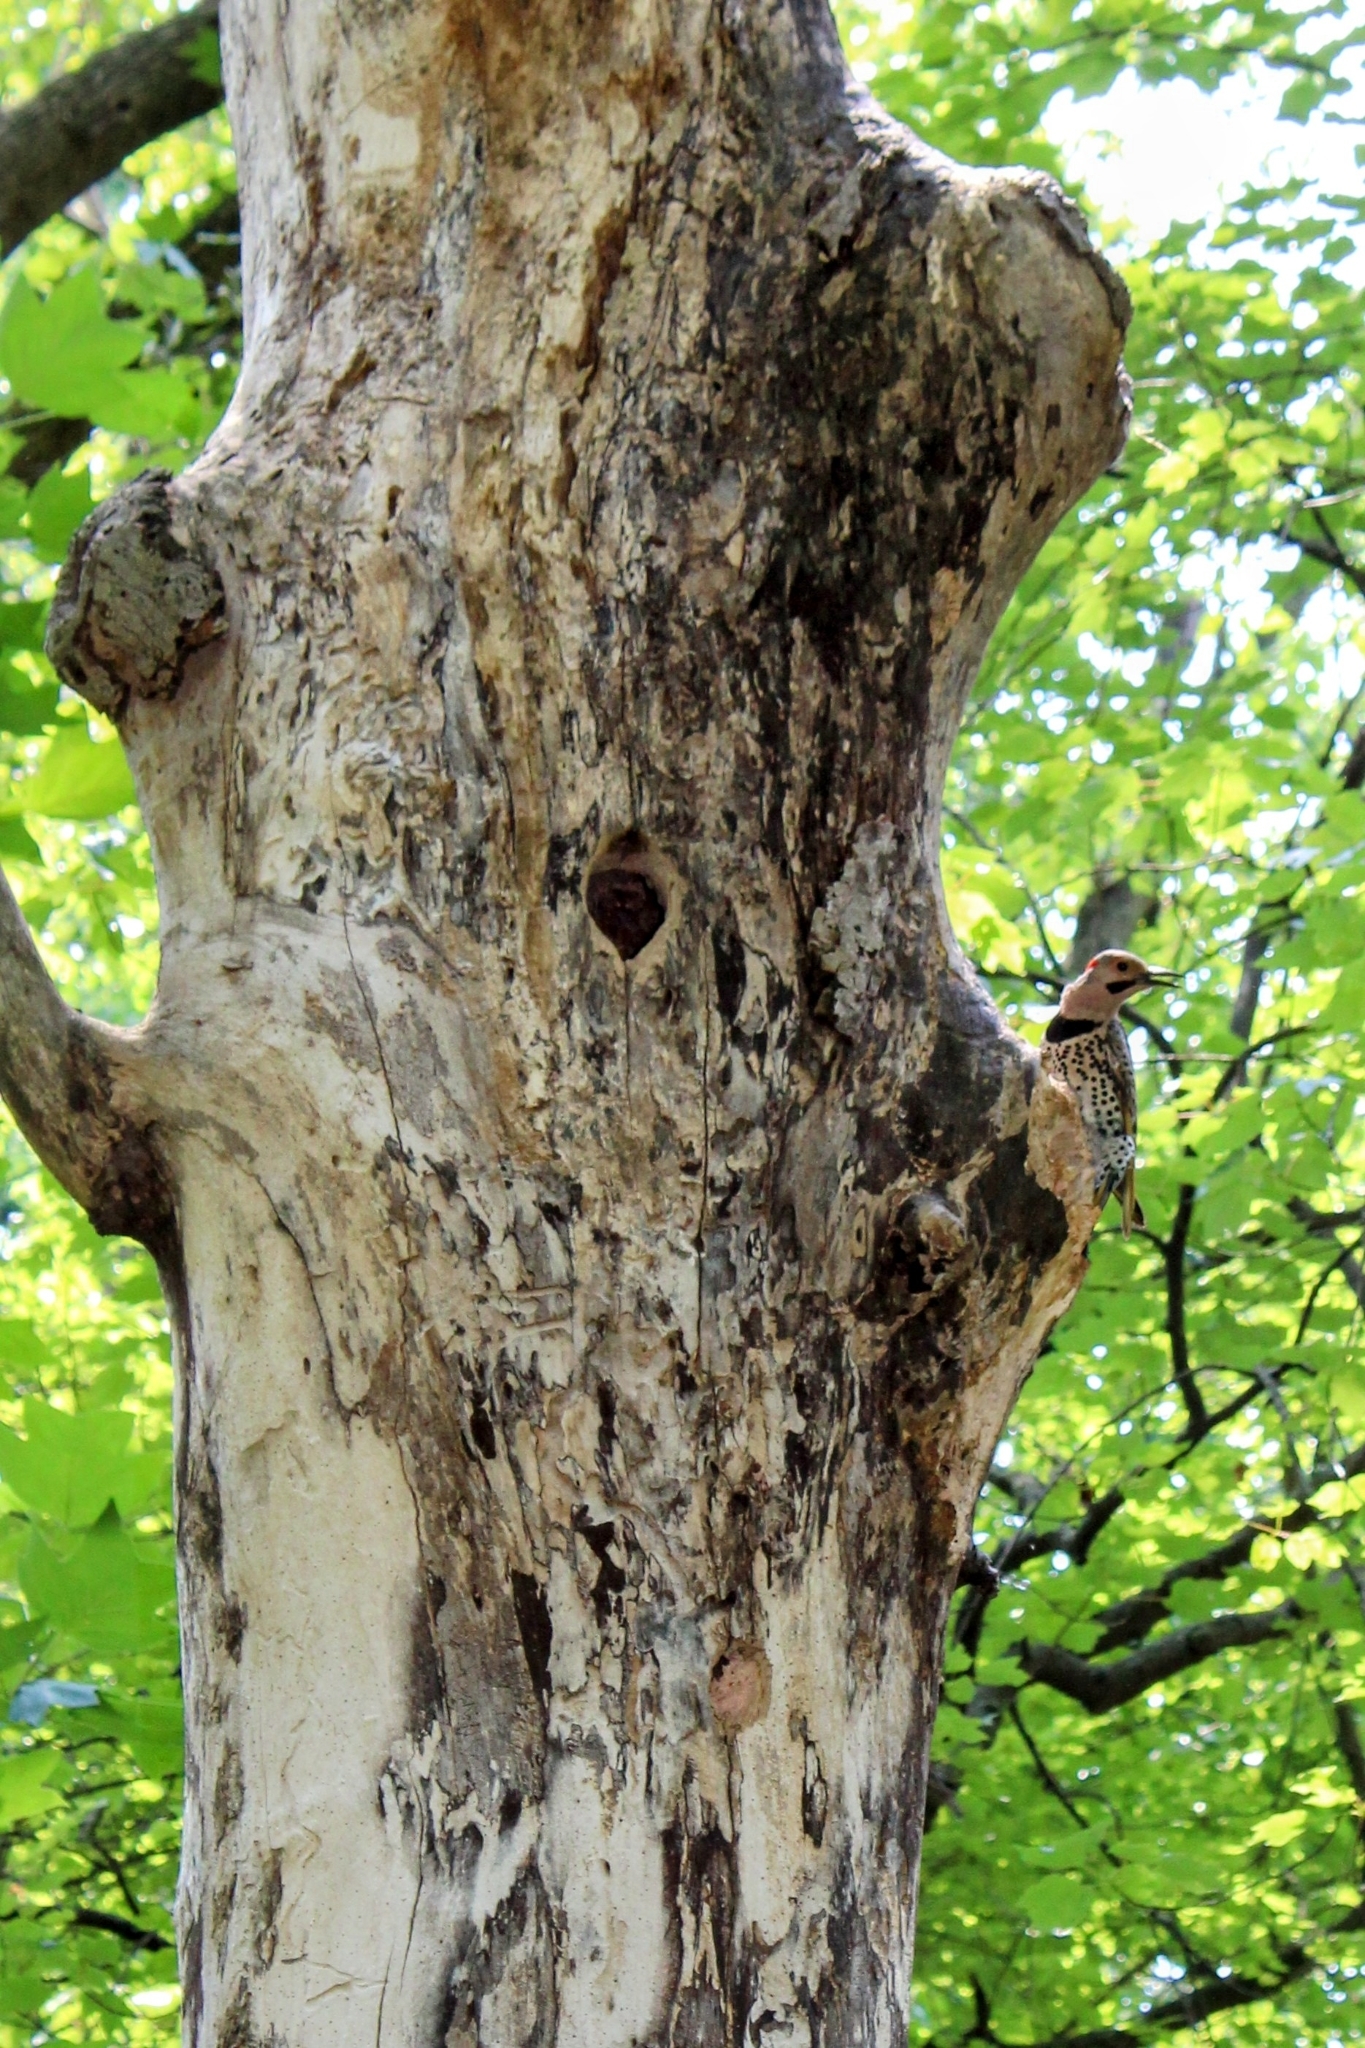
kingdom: Animalia
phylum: Chordata
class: Aves
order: Piciformes
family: Picidae
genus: Colaptes
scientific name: Colaptes auratus
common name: Northern flicker
